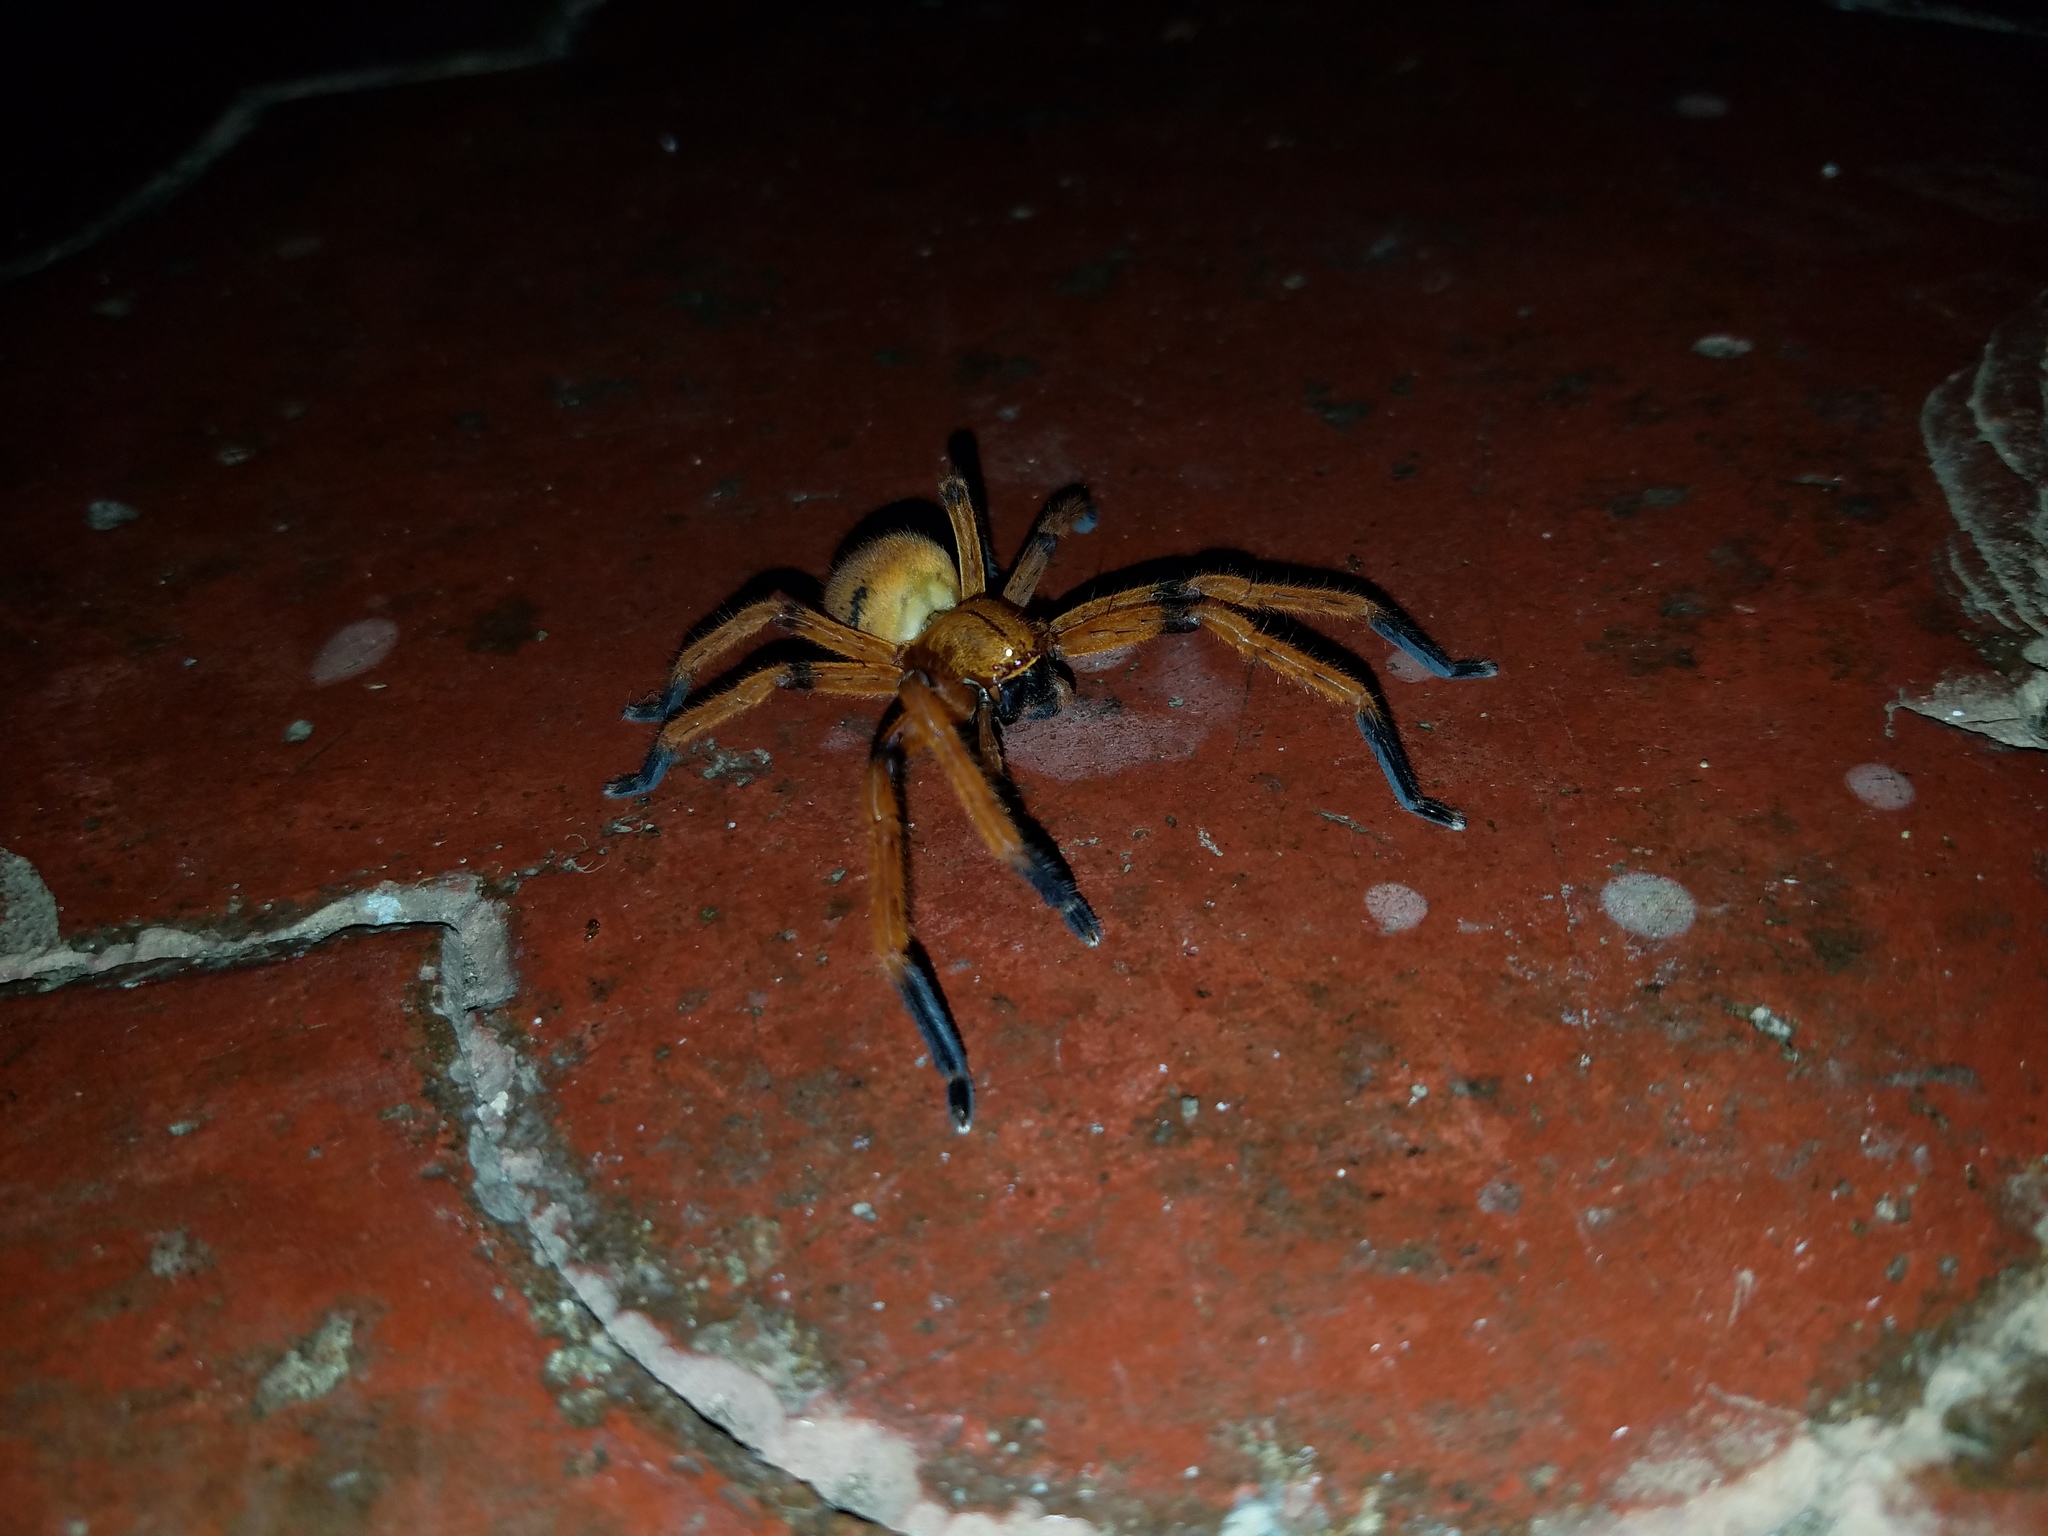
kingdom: Animalia
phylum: Arthropoda
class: Arachnida
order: Araneae
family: Sparassidae
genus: Olios
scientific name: Olios simoni
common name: Huntsman spiders
